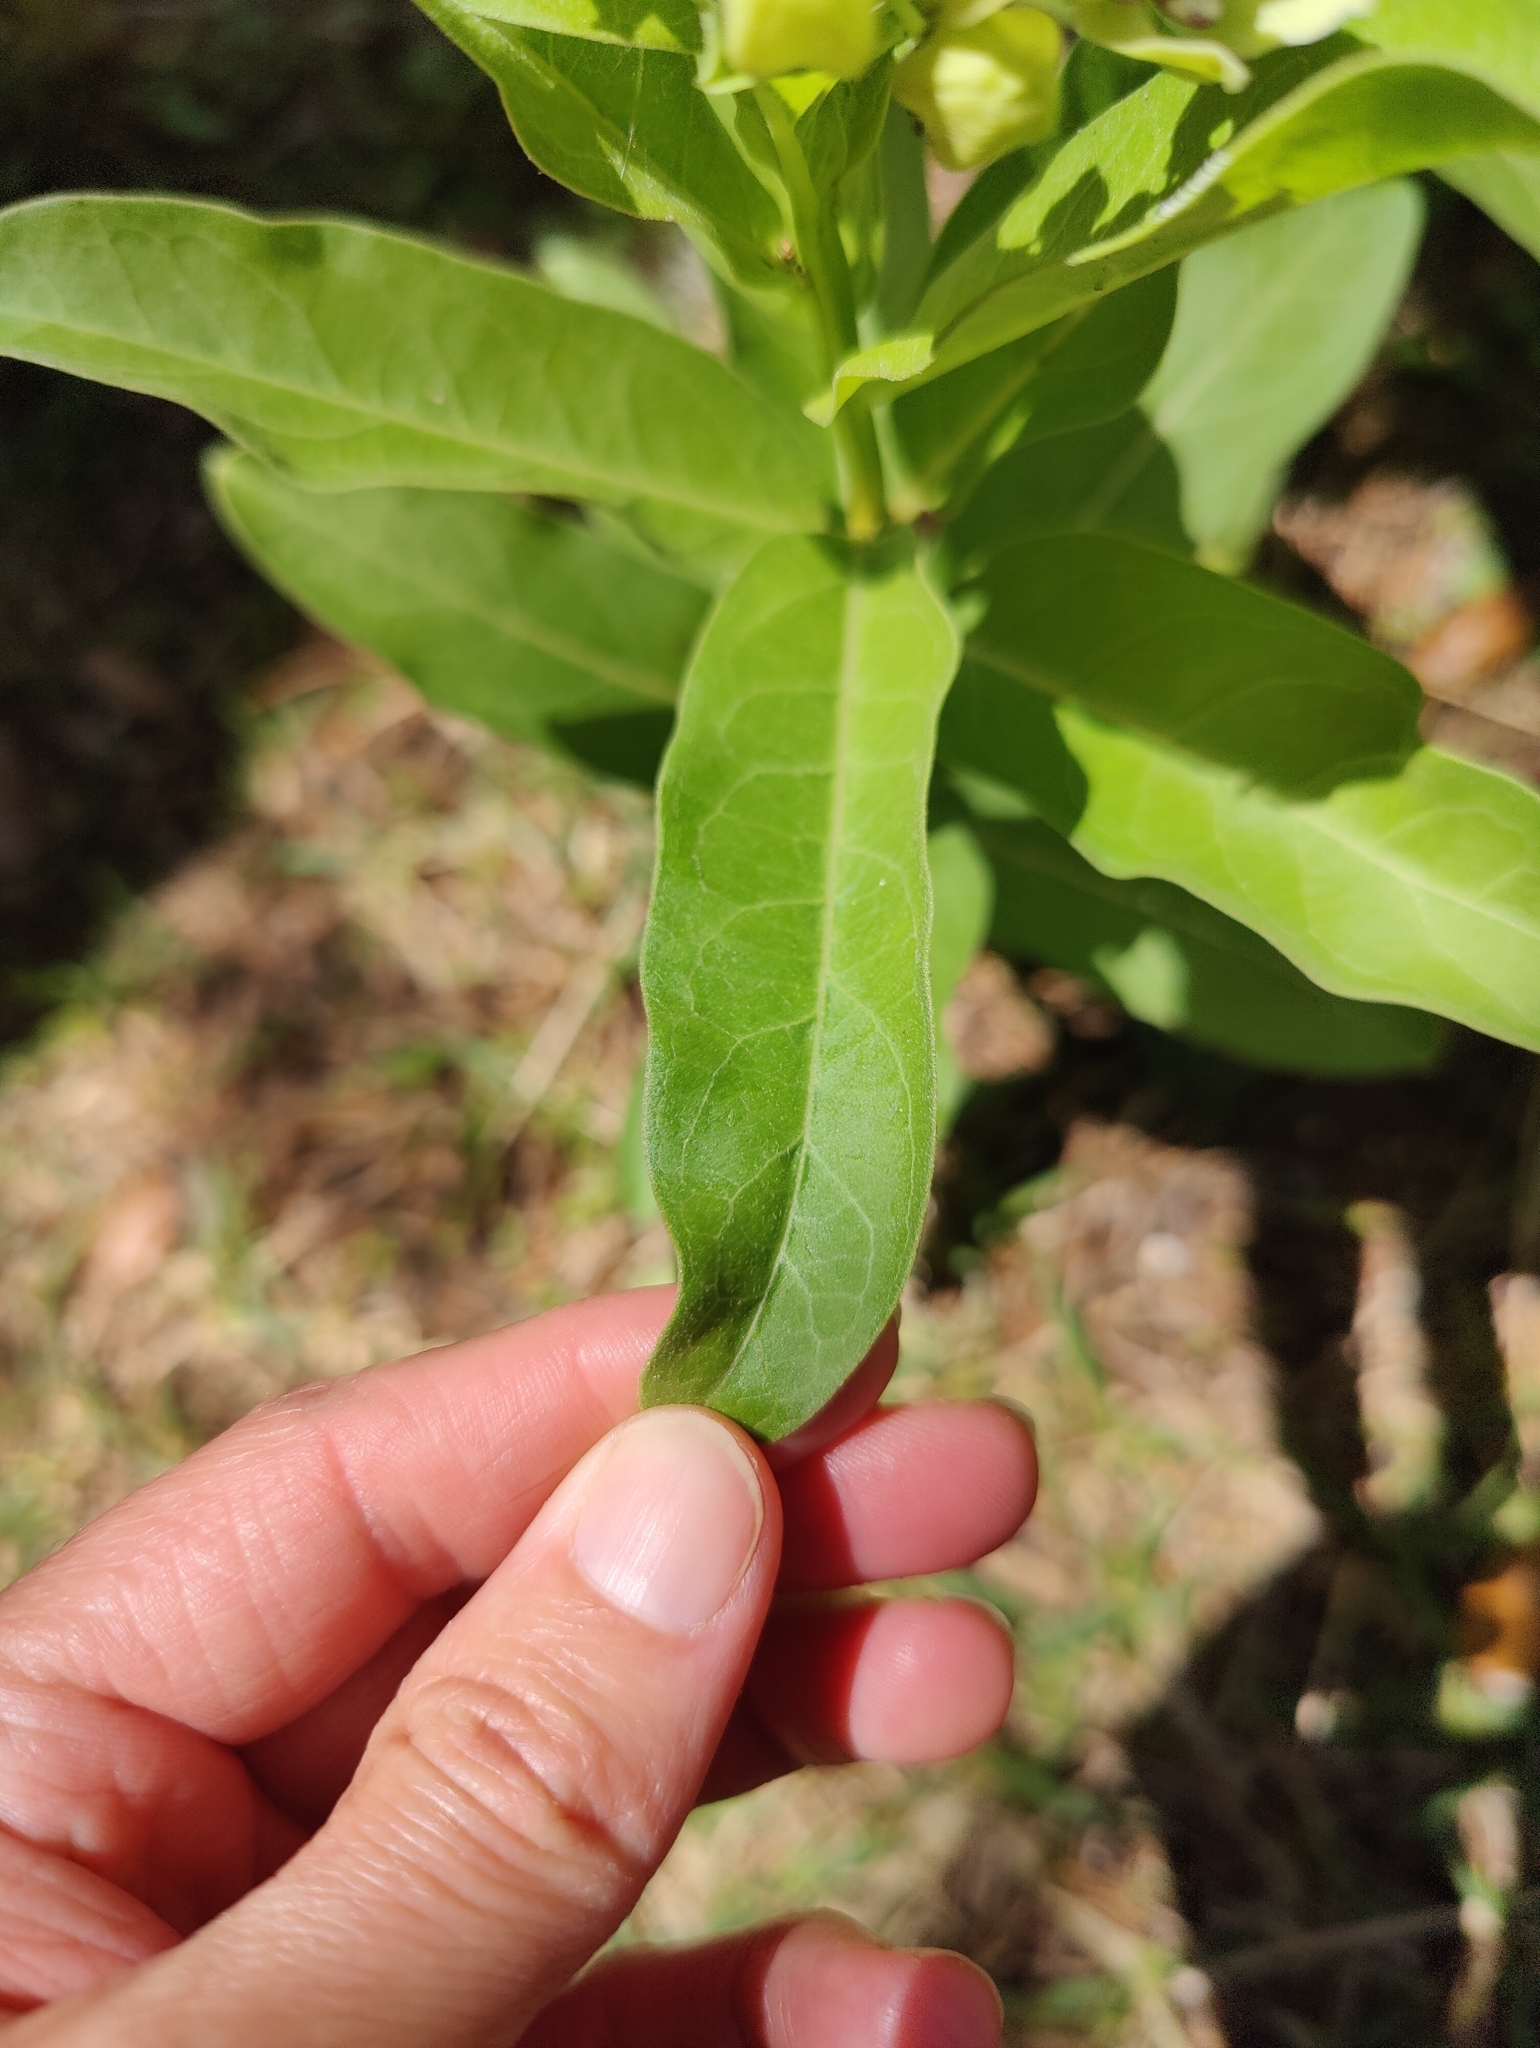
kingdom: Plantae
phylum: Tracheophyta
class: Magnoliopsida
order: Gentianales
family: Apocynaceae
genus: Asclepias
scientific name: Asclepias viridis
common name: Antelope-horns
